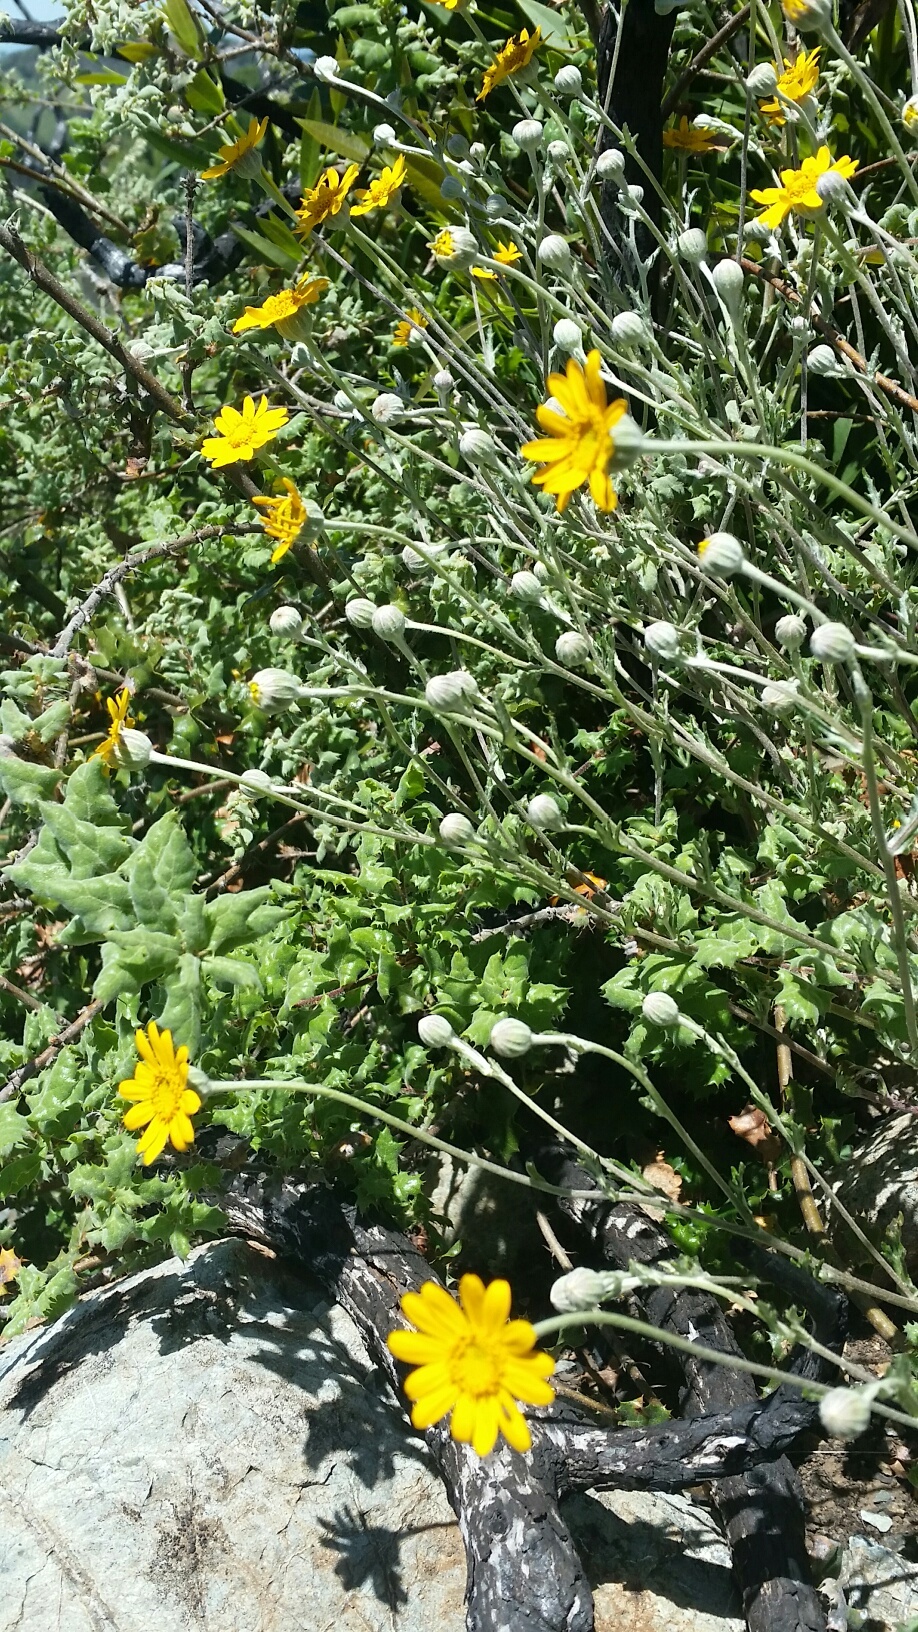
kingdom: Plantae
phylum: Tracheophyta
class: Magnoliopsida
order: Asterales
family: Asteraceae
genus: Eriophyllum
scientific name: Eriophyllum lanatum
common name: Common woolly-sunflower
